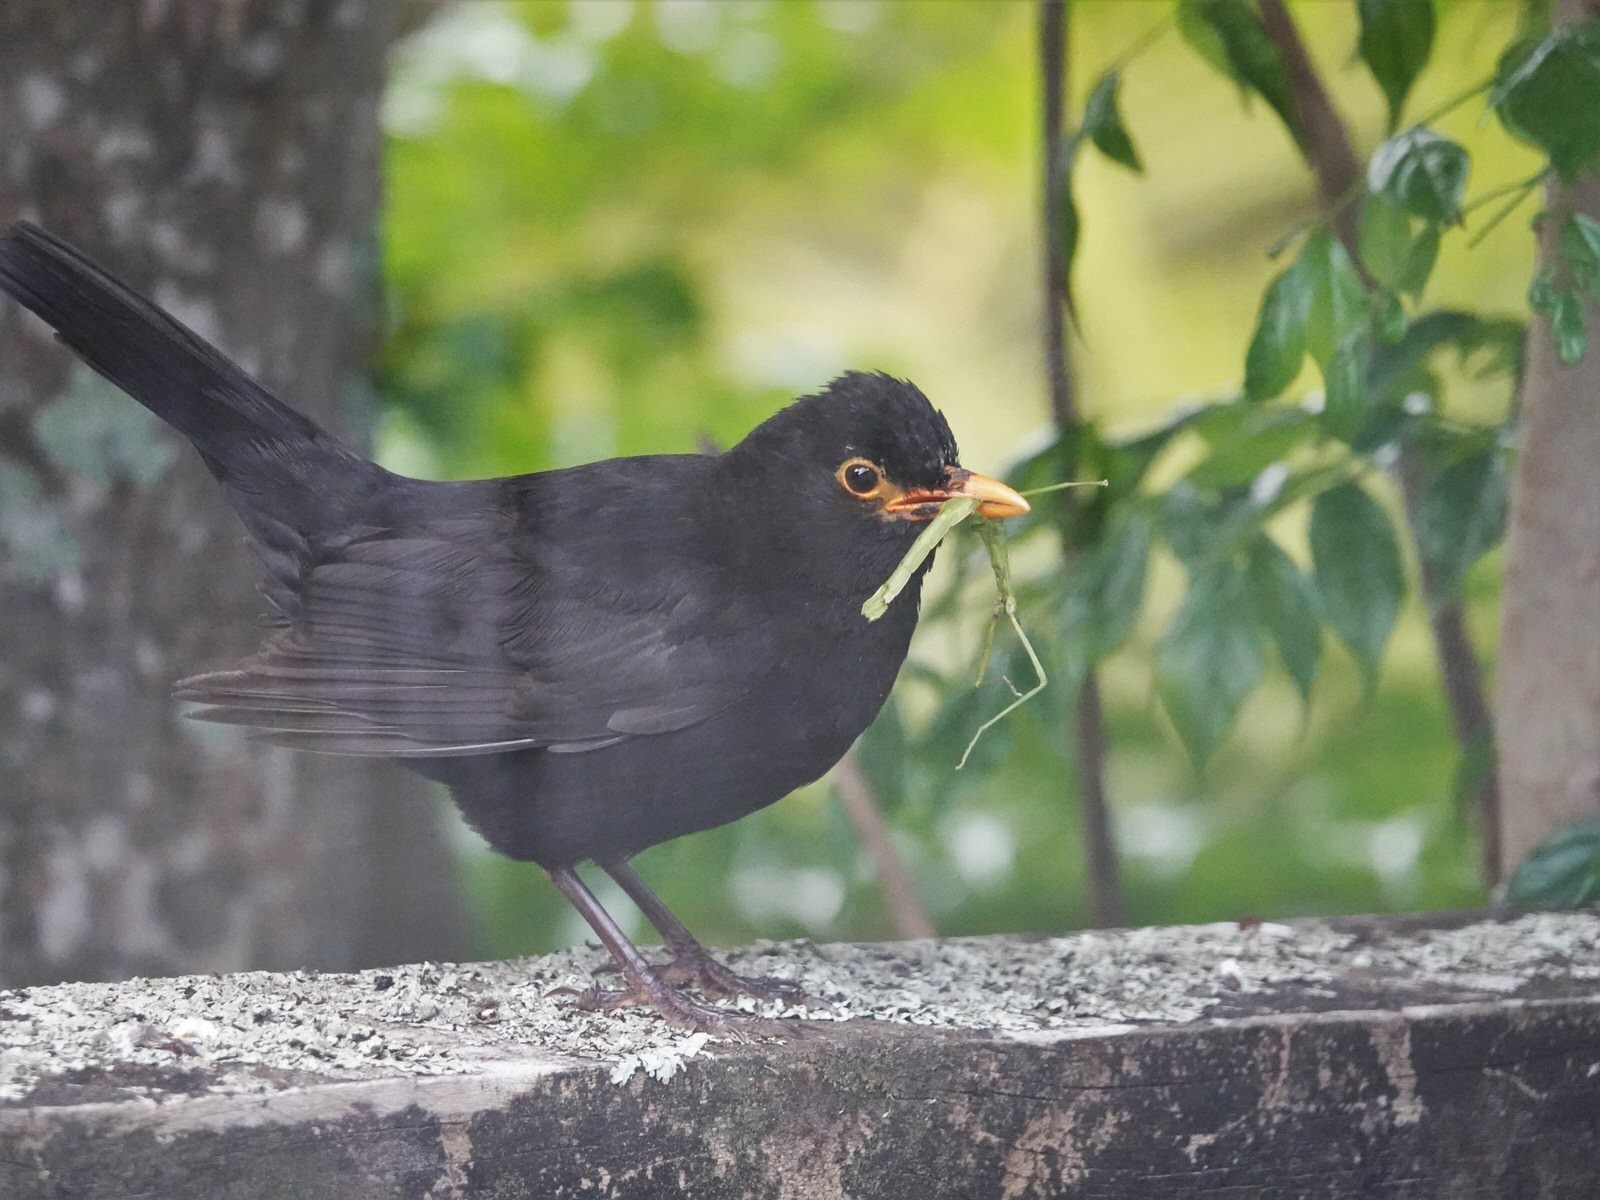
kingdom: Animalia
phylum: Arthropoda
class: Insecta
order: Phasmida
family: Phasmatidae
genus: Clitarchus
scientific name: Clitarchus hookeri
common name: Smooth stick insect
